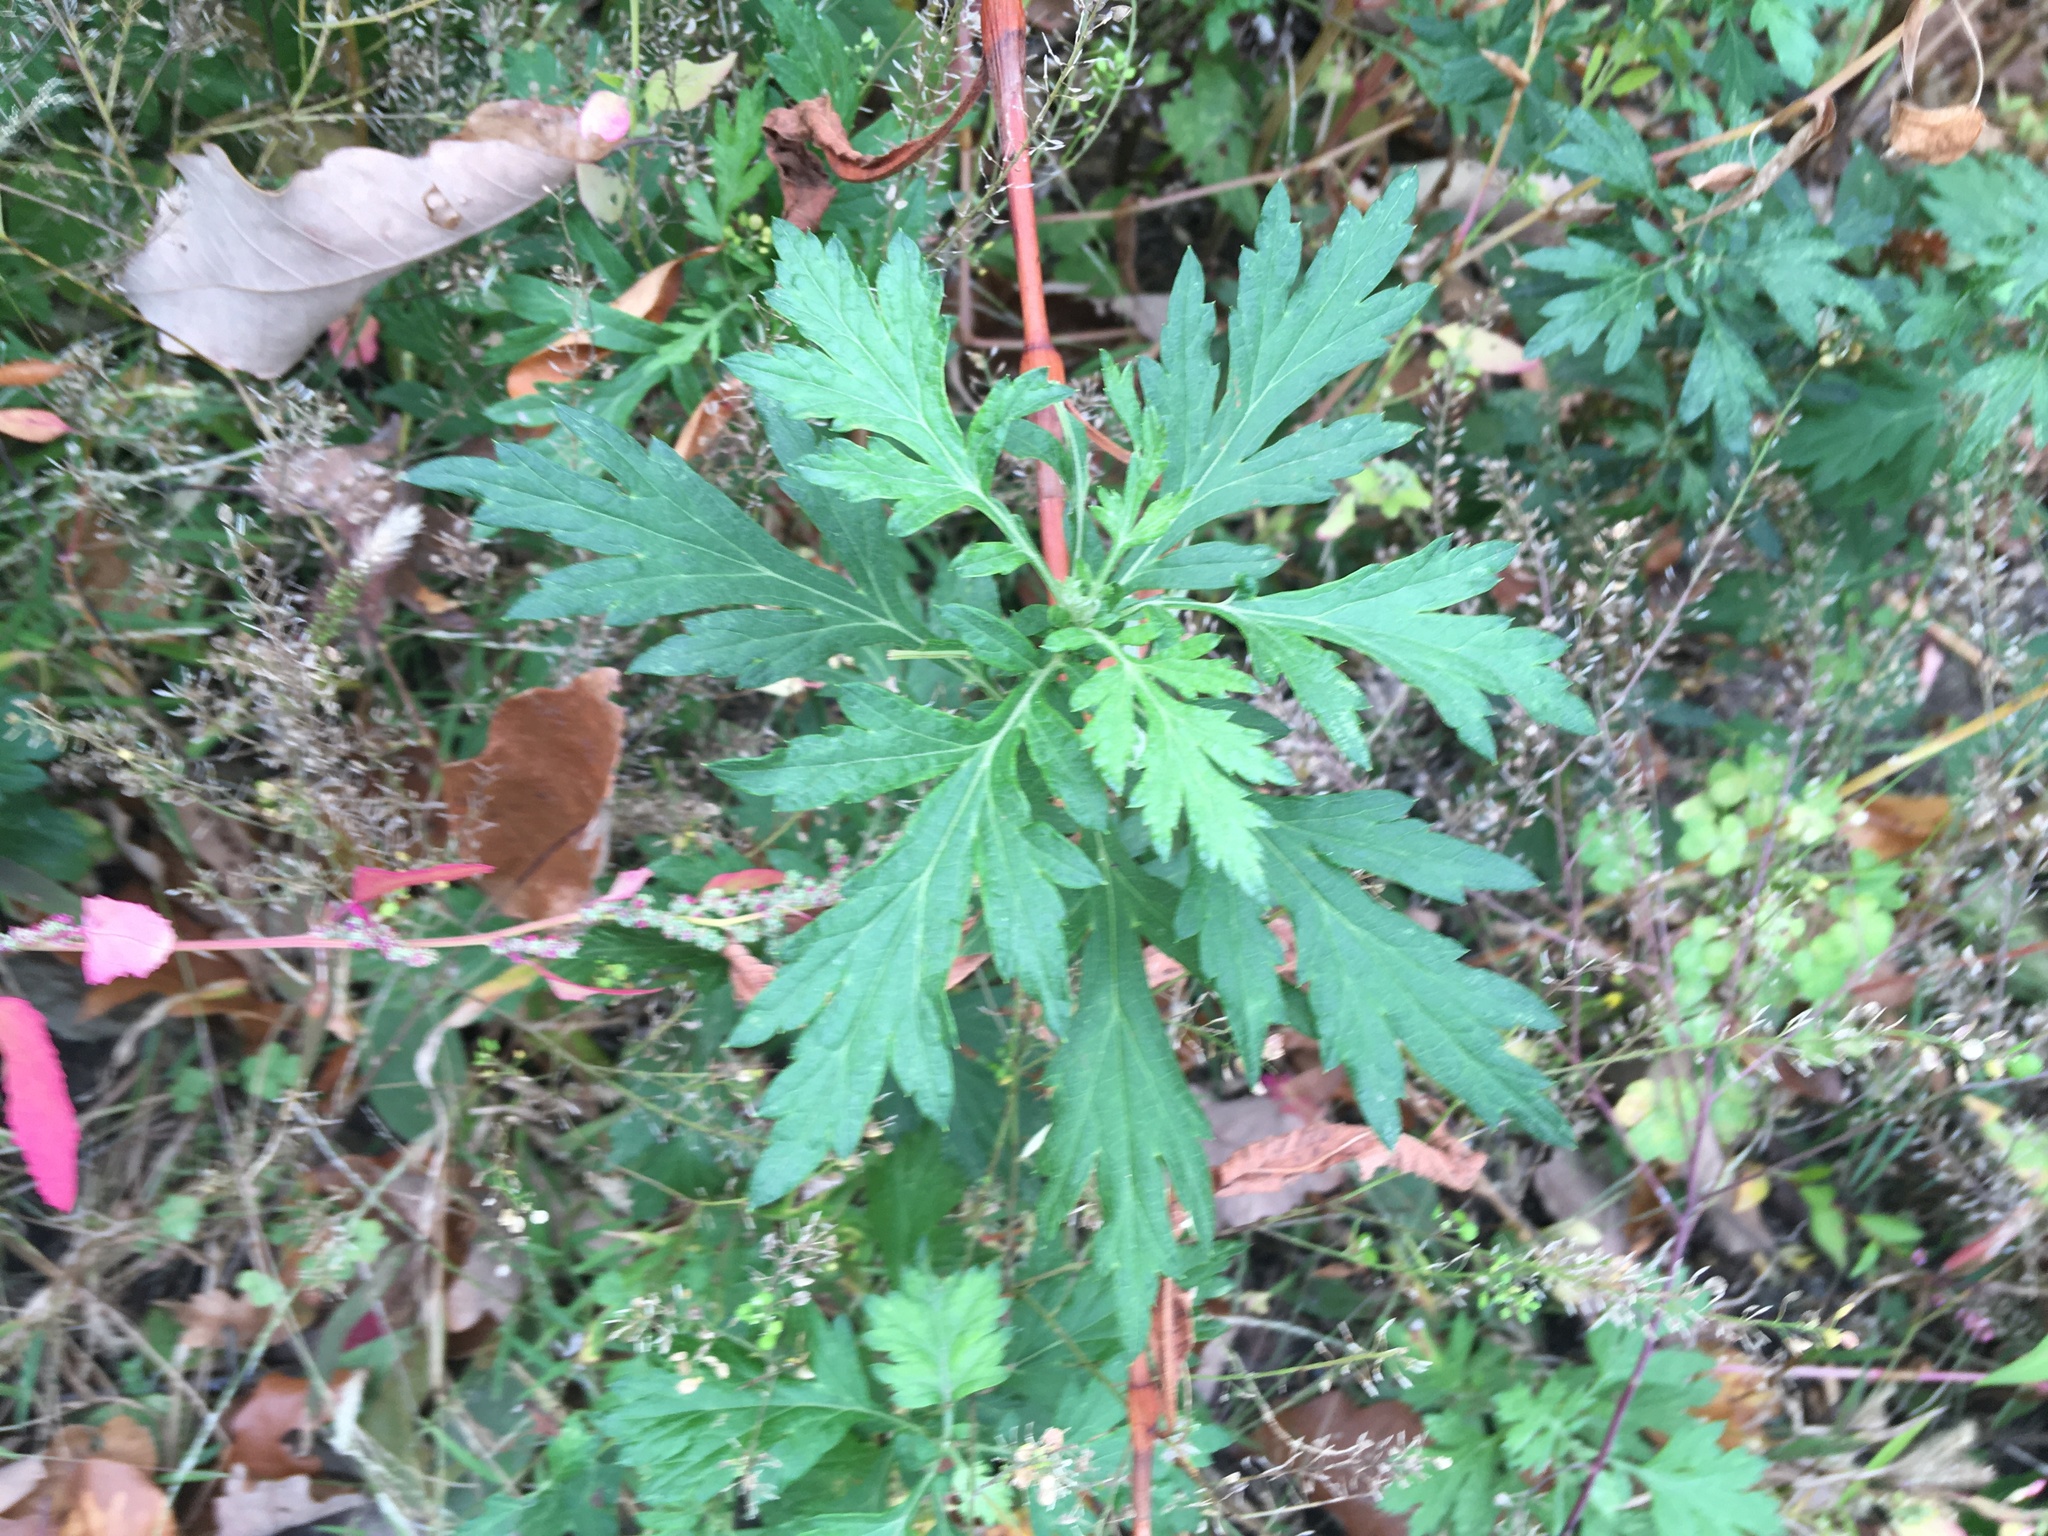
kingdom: Plantae
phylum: Tracheophyta
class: Magnoliopsida
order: Asterales
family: Asteraceae
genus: Artemisia
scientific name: Artemisia vulgaris
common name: Mugwort
